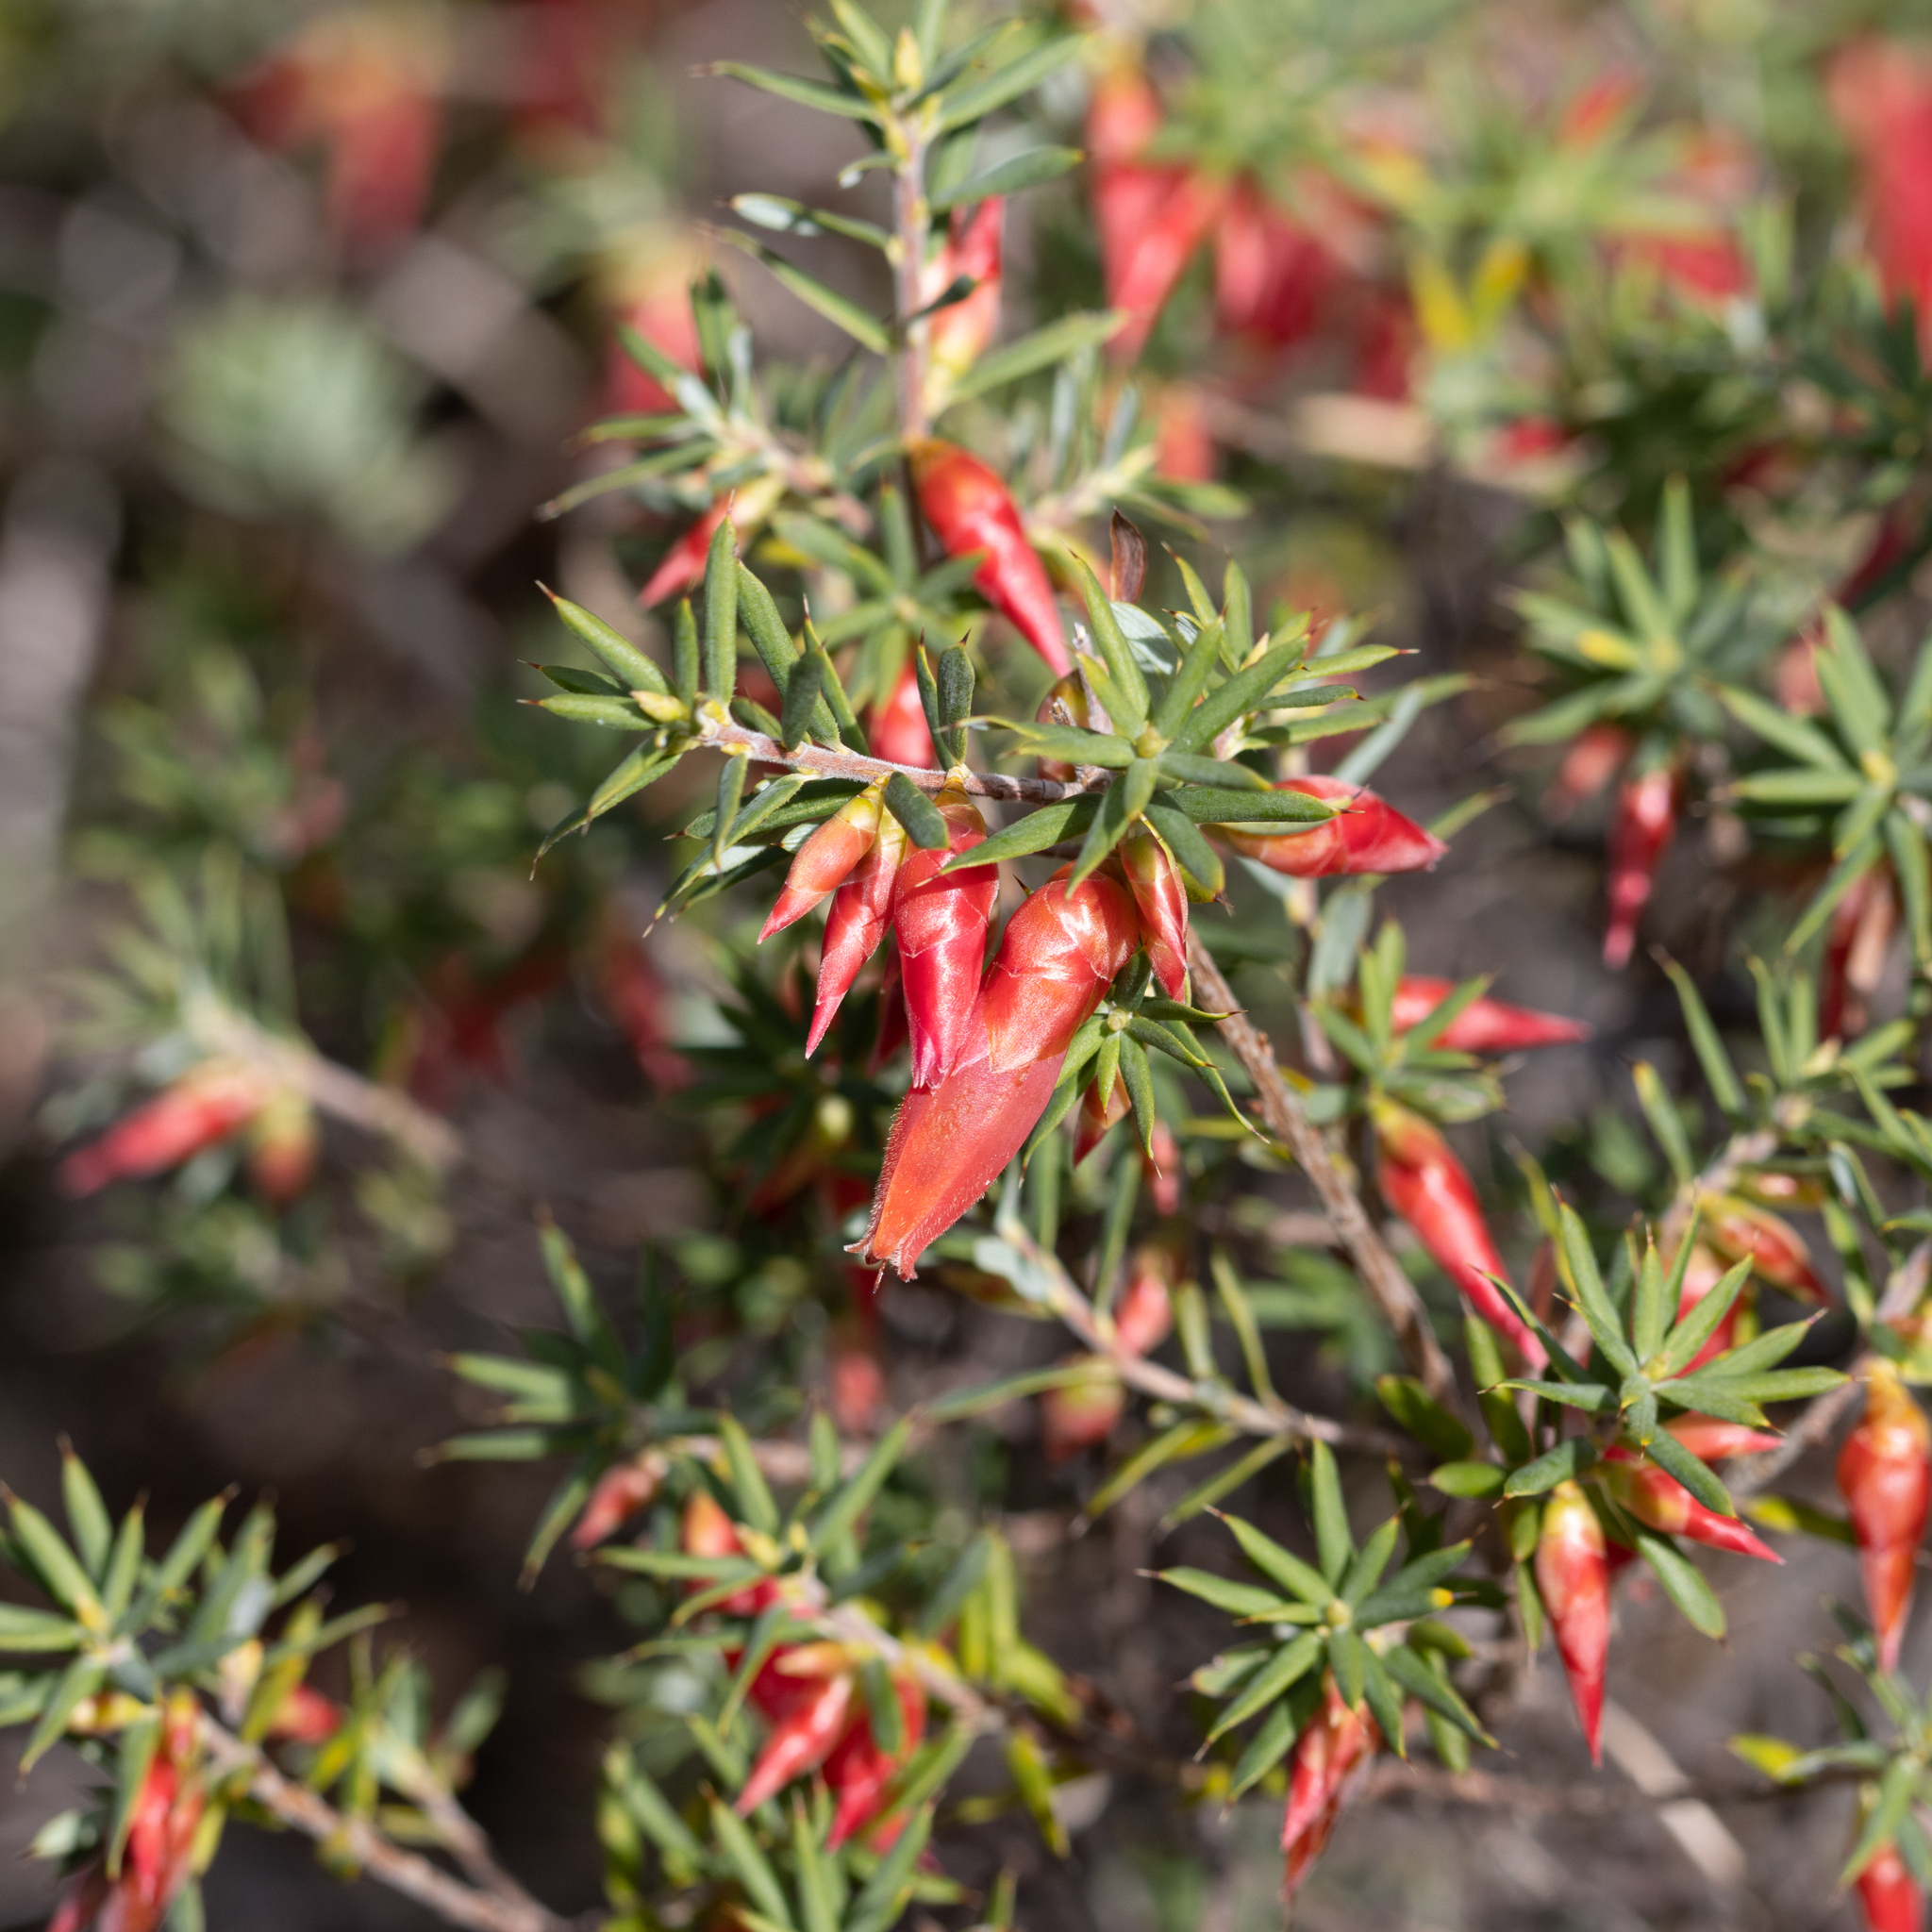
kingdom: Plantae
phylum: Tracheophyta
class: Magnoliopsida
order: Ericales
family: Ericaceae
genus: Stenanthera
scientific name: Stenanthera conostephioides
